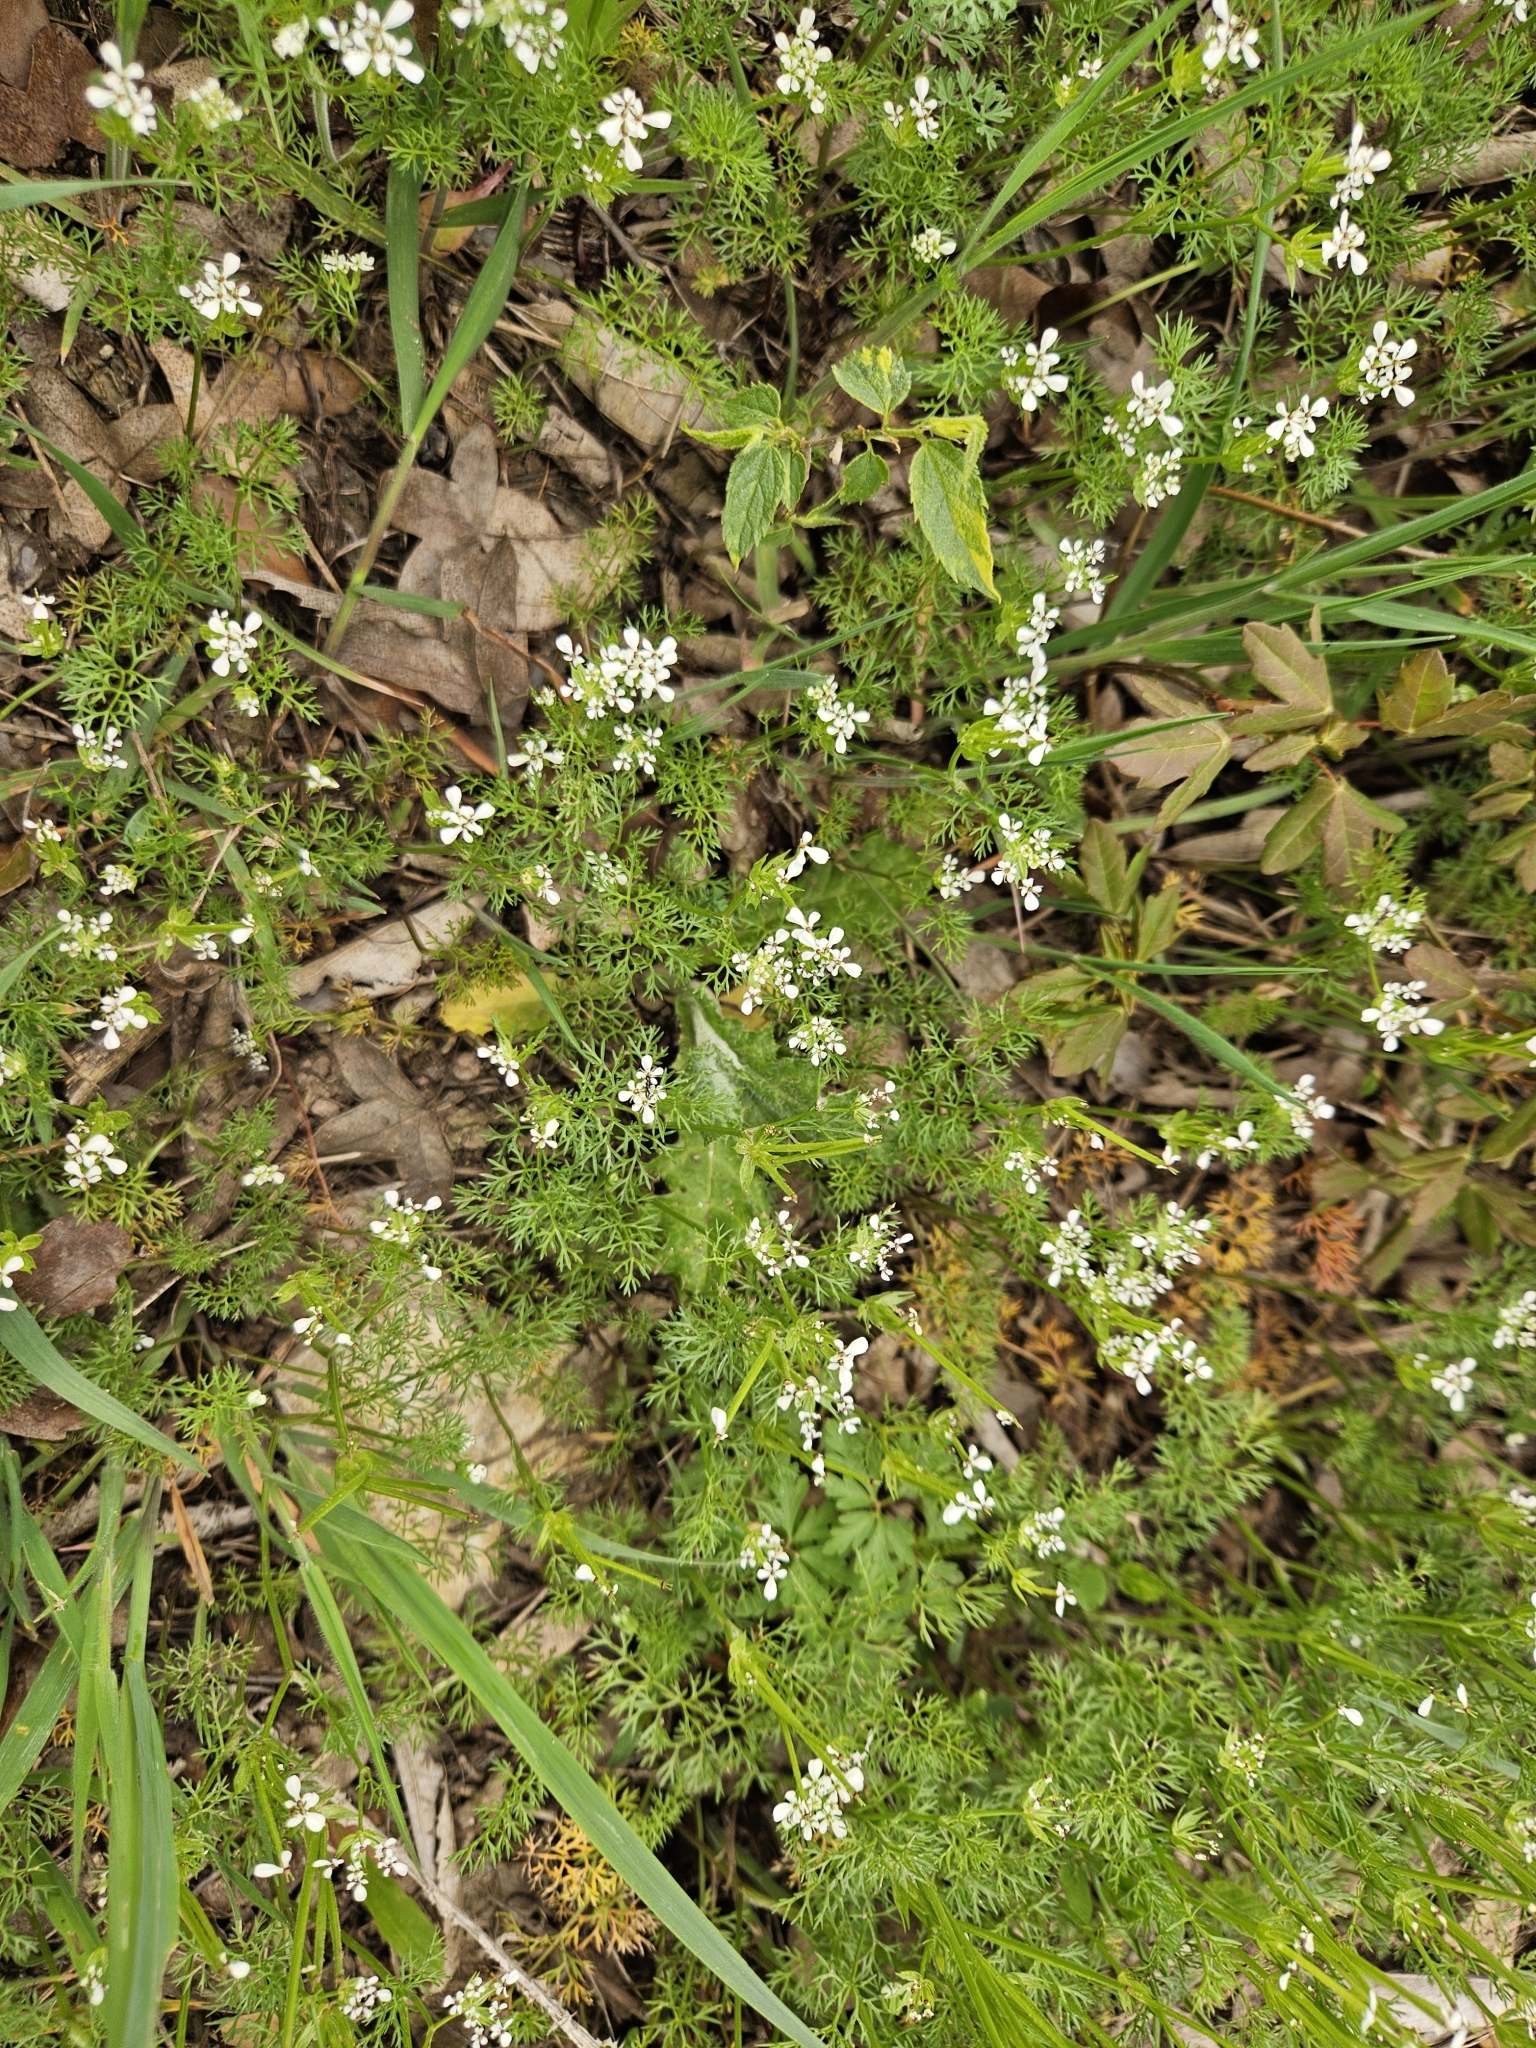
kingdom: Plantae
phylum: Tracheophyta
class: Magnoliopsida
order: Apiales
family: Apiaceae
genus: Scandix
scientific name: Scandix pecten-veneris
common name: Shepherd's-needle
